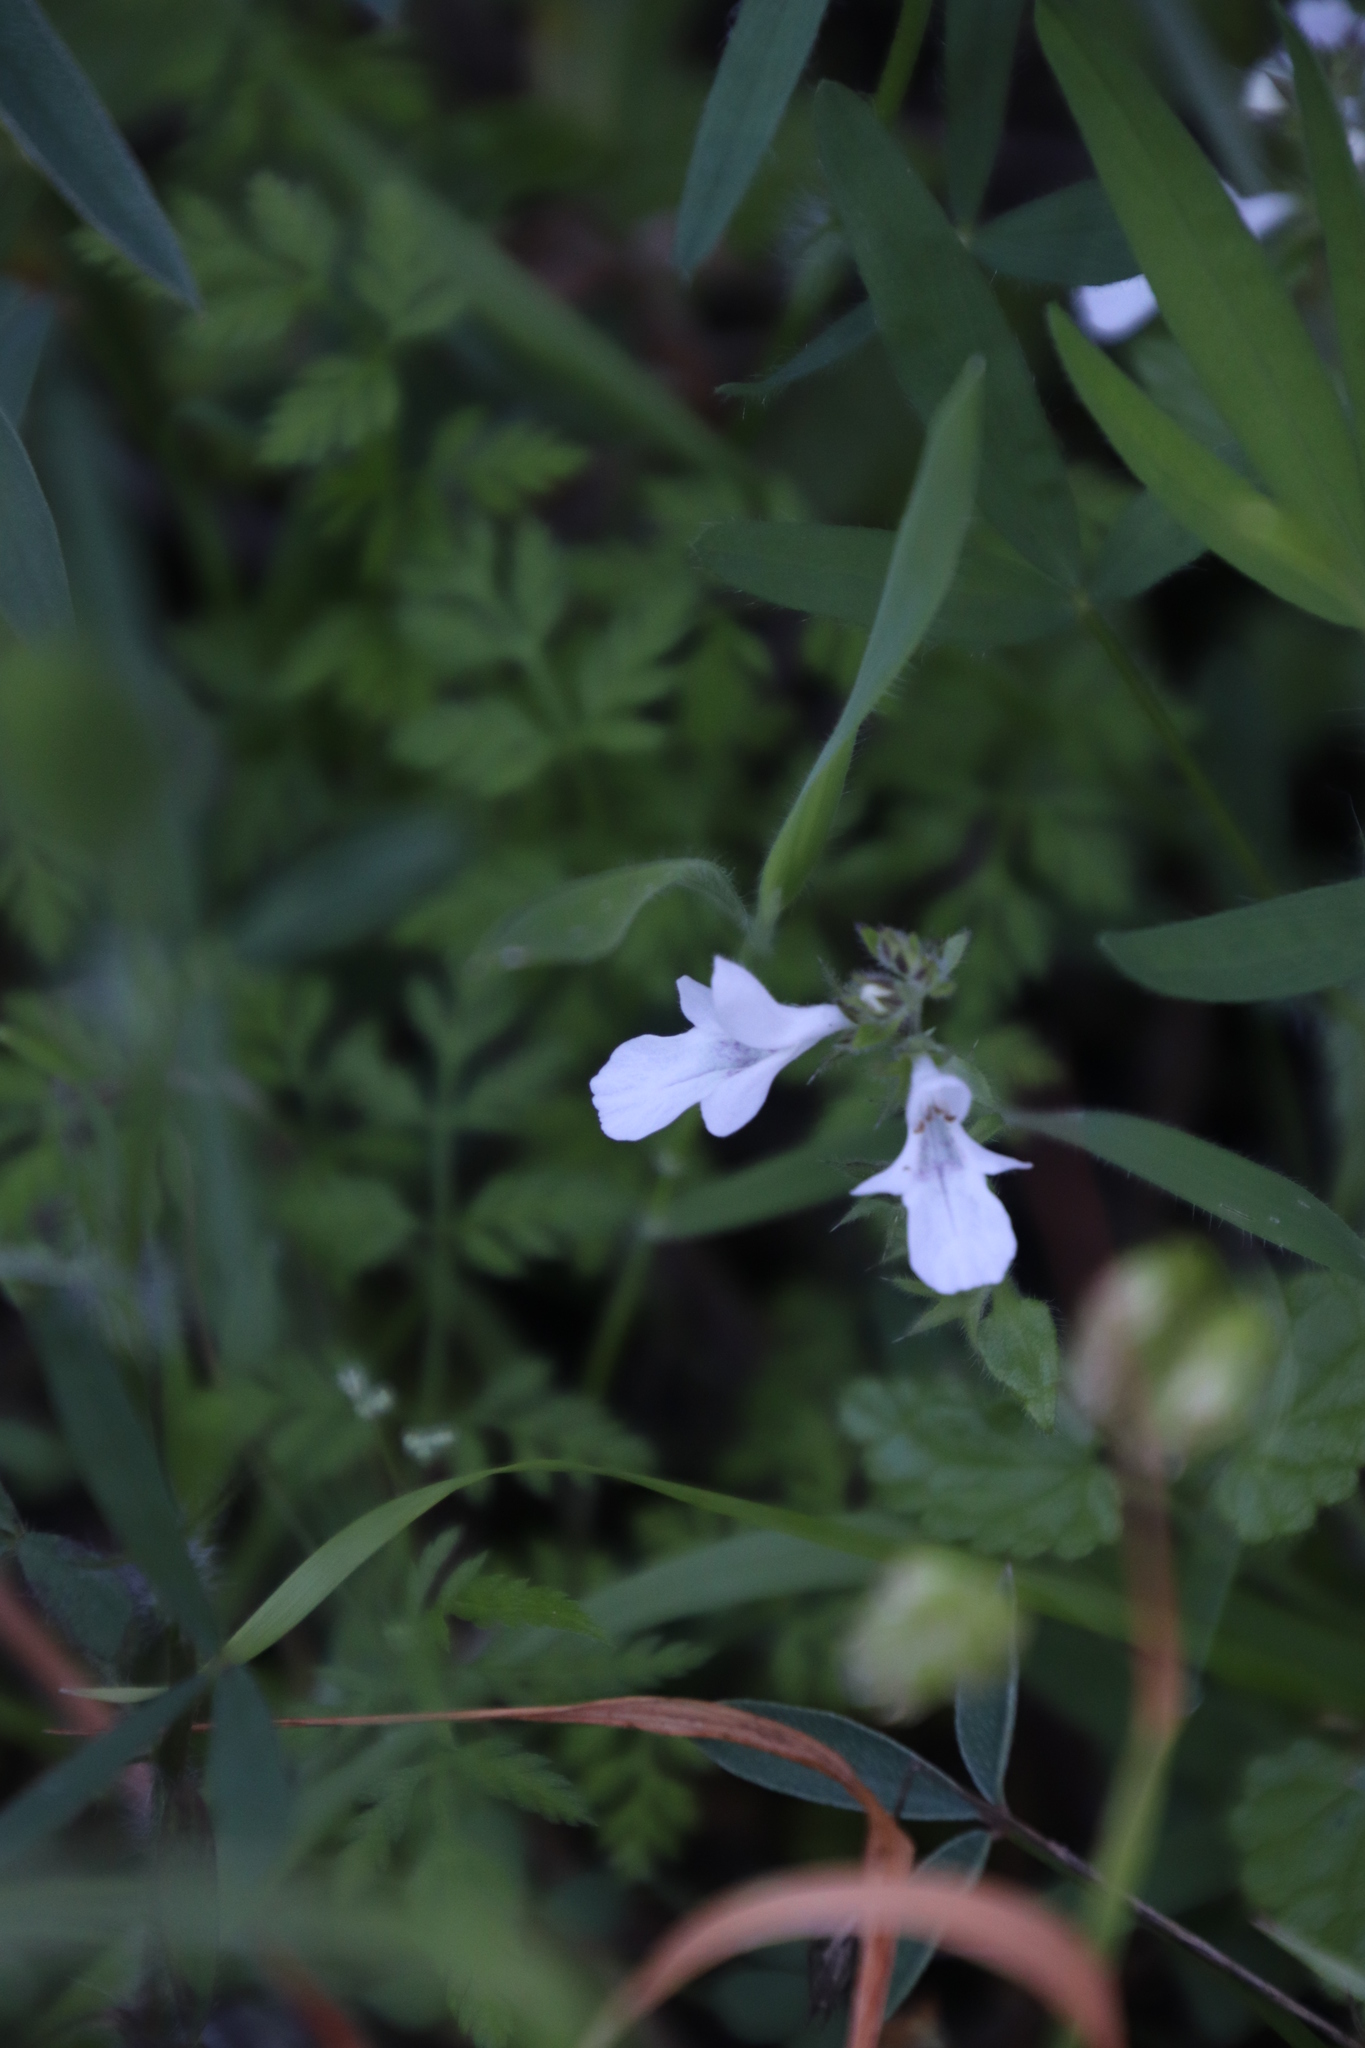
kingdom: Plantae
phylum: Tracheophyta
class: Magnoliopsida
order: Lamiales
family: Lamiaceae
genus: Stachys
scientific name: Stachys aethiopica
